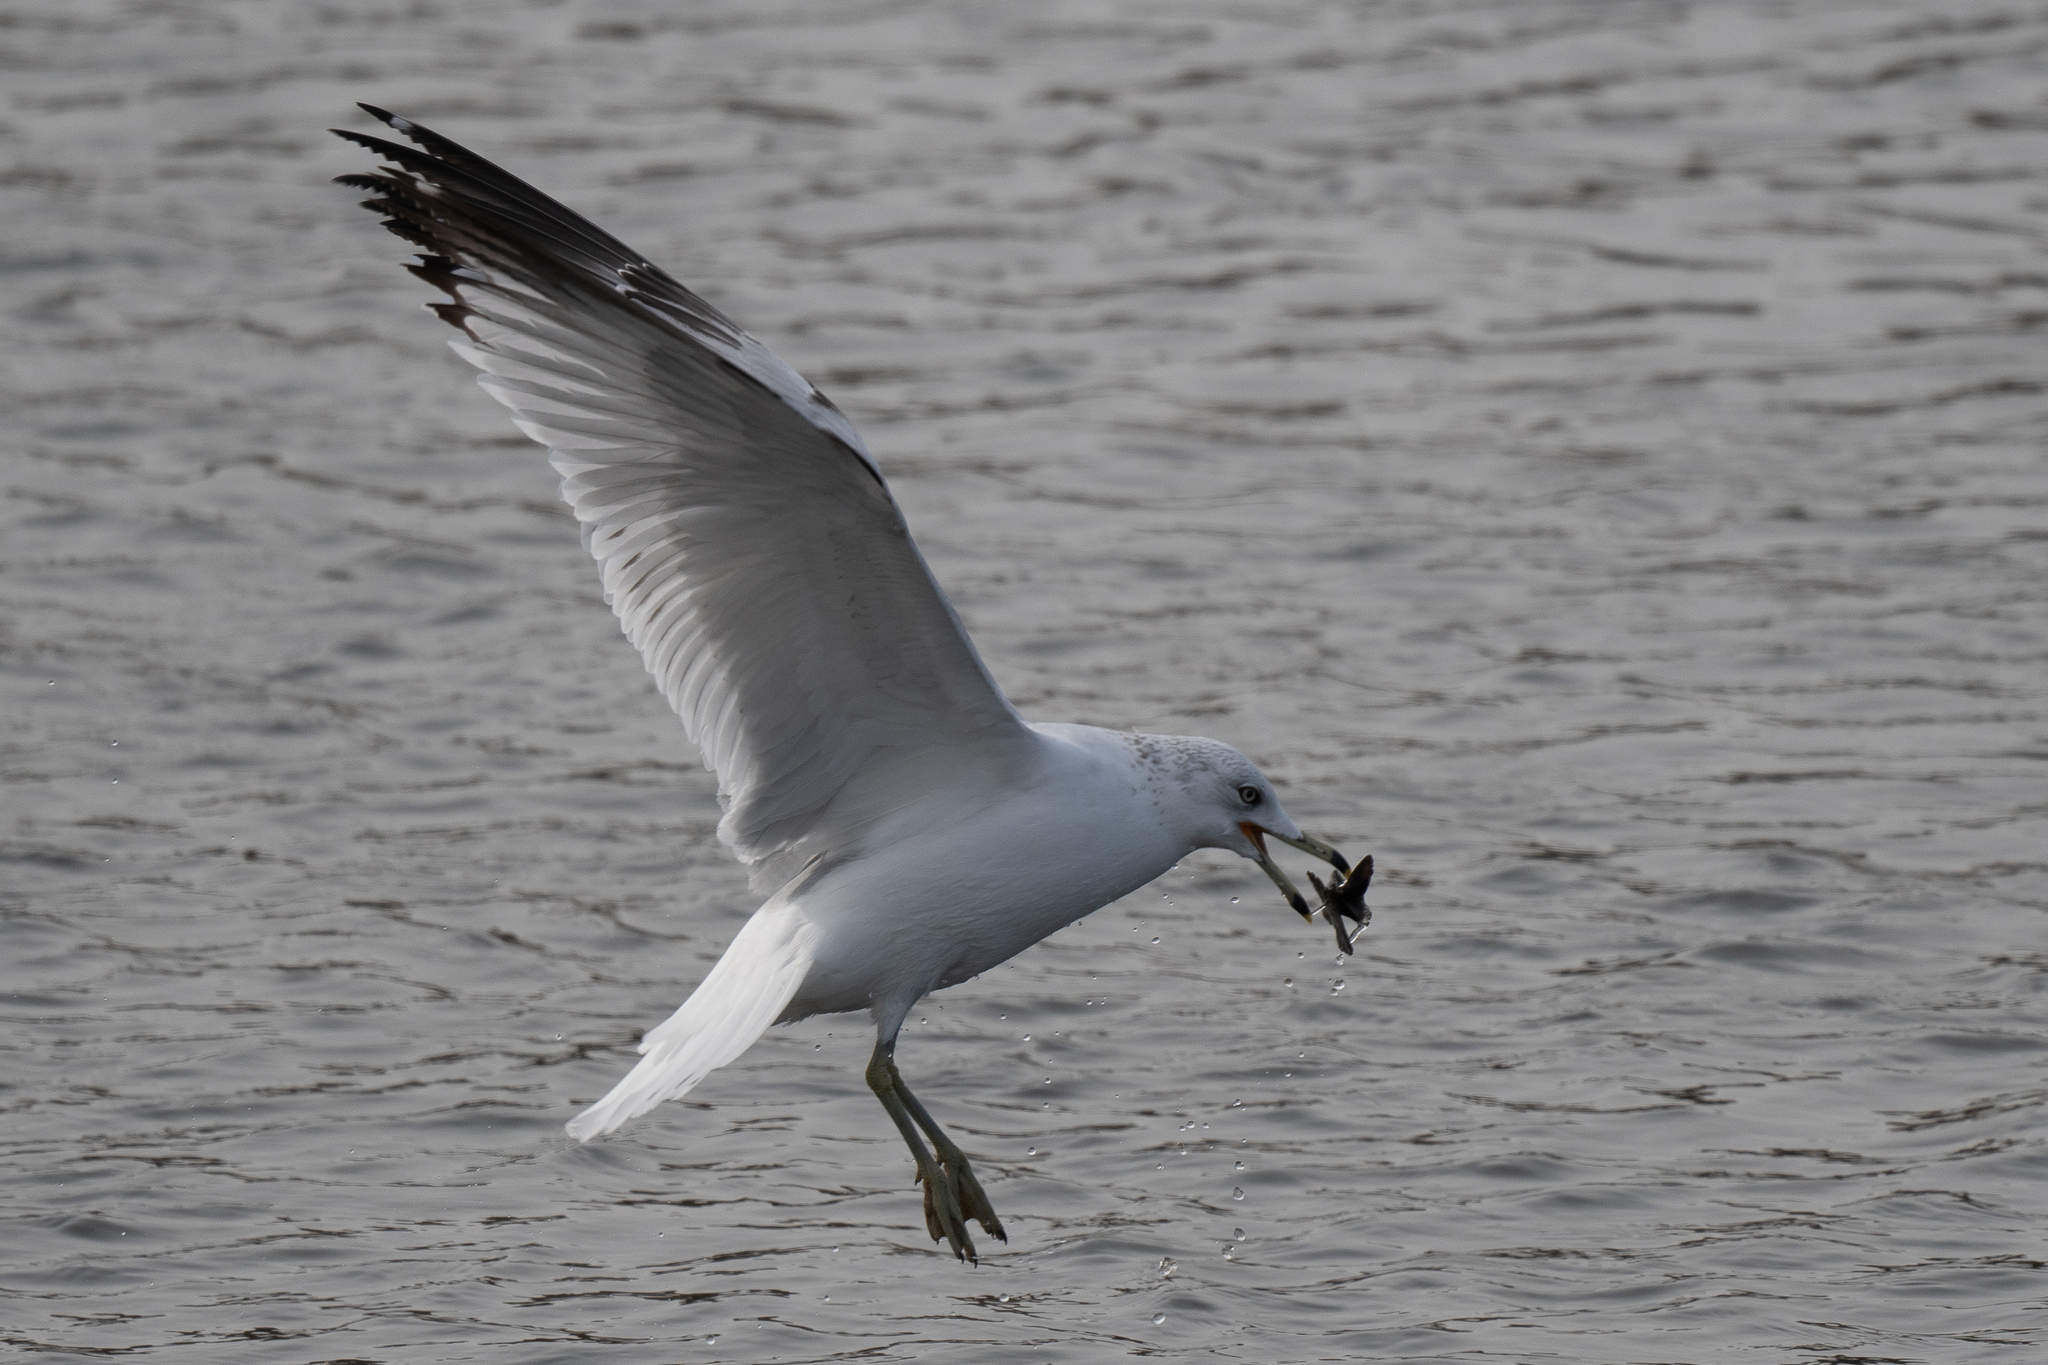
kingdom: Animalia
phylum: Chordata
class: Aves
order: Charadriiformes
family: Laridae
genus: Larus
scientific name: Larus delawarensis
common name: Ring-billed gull
